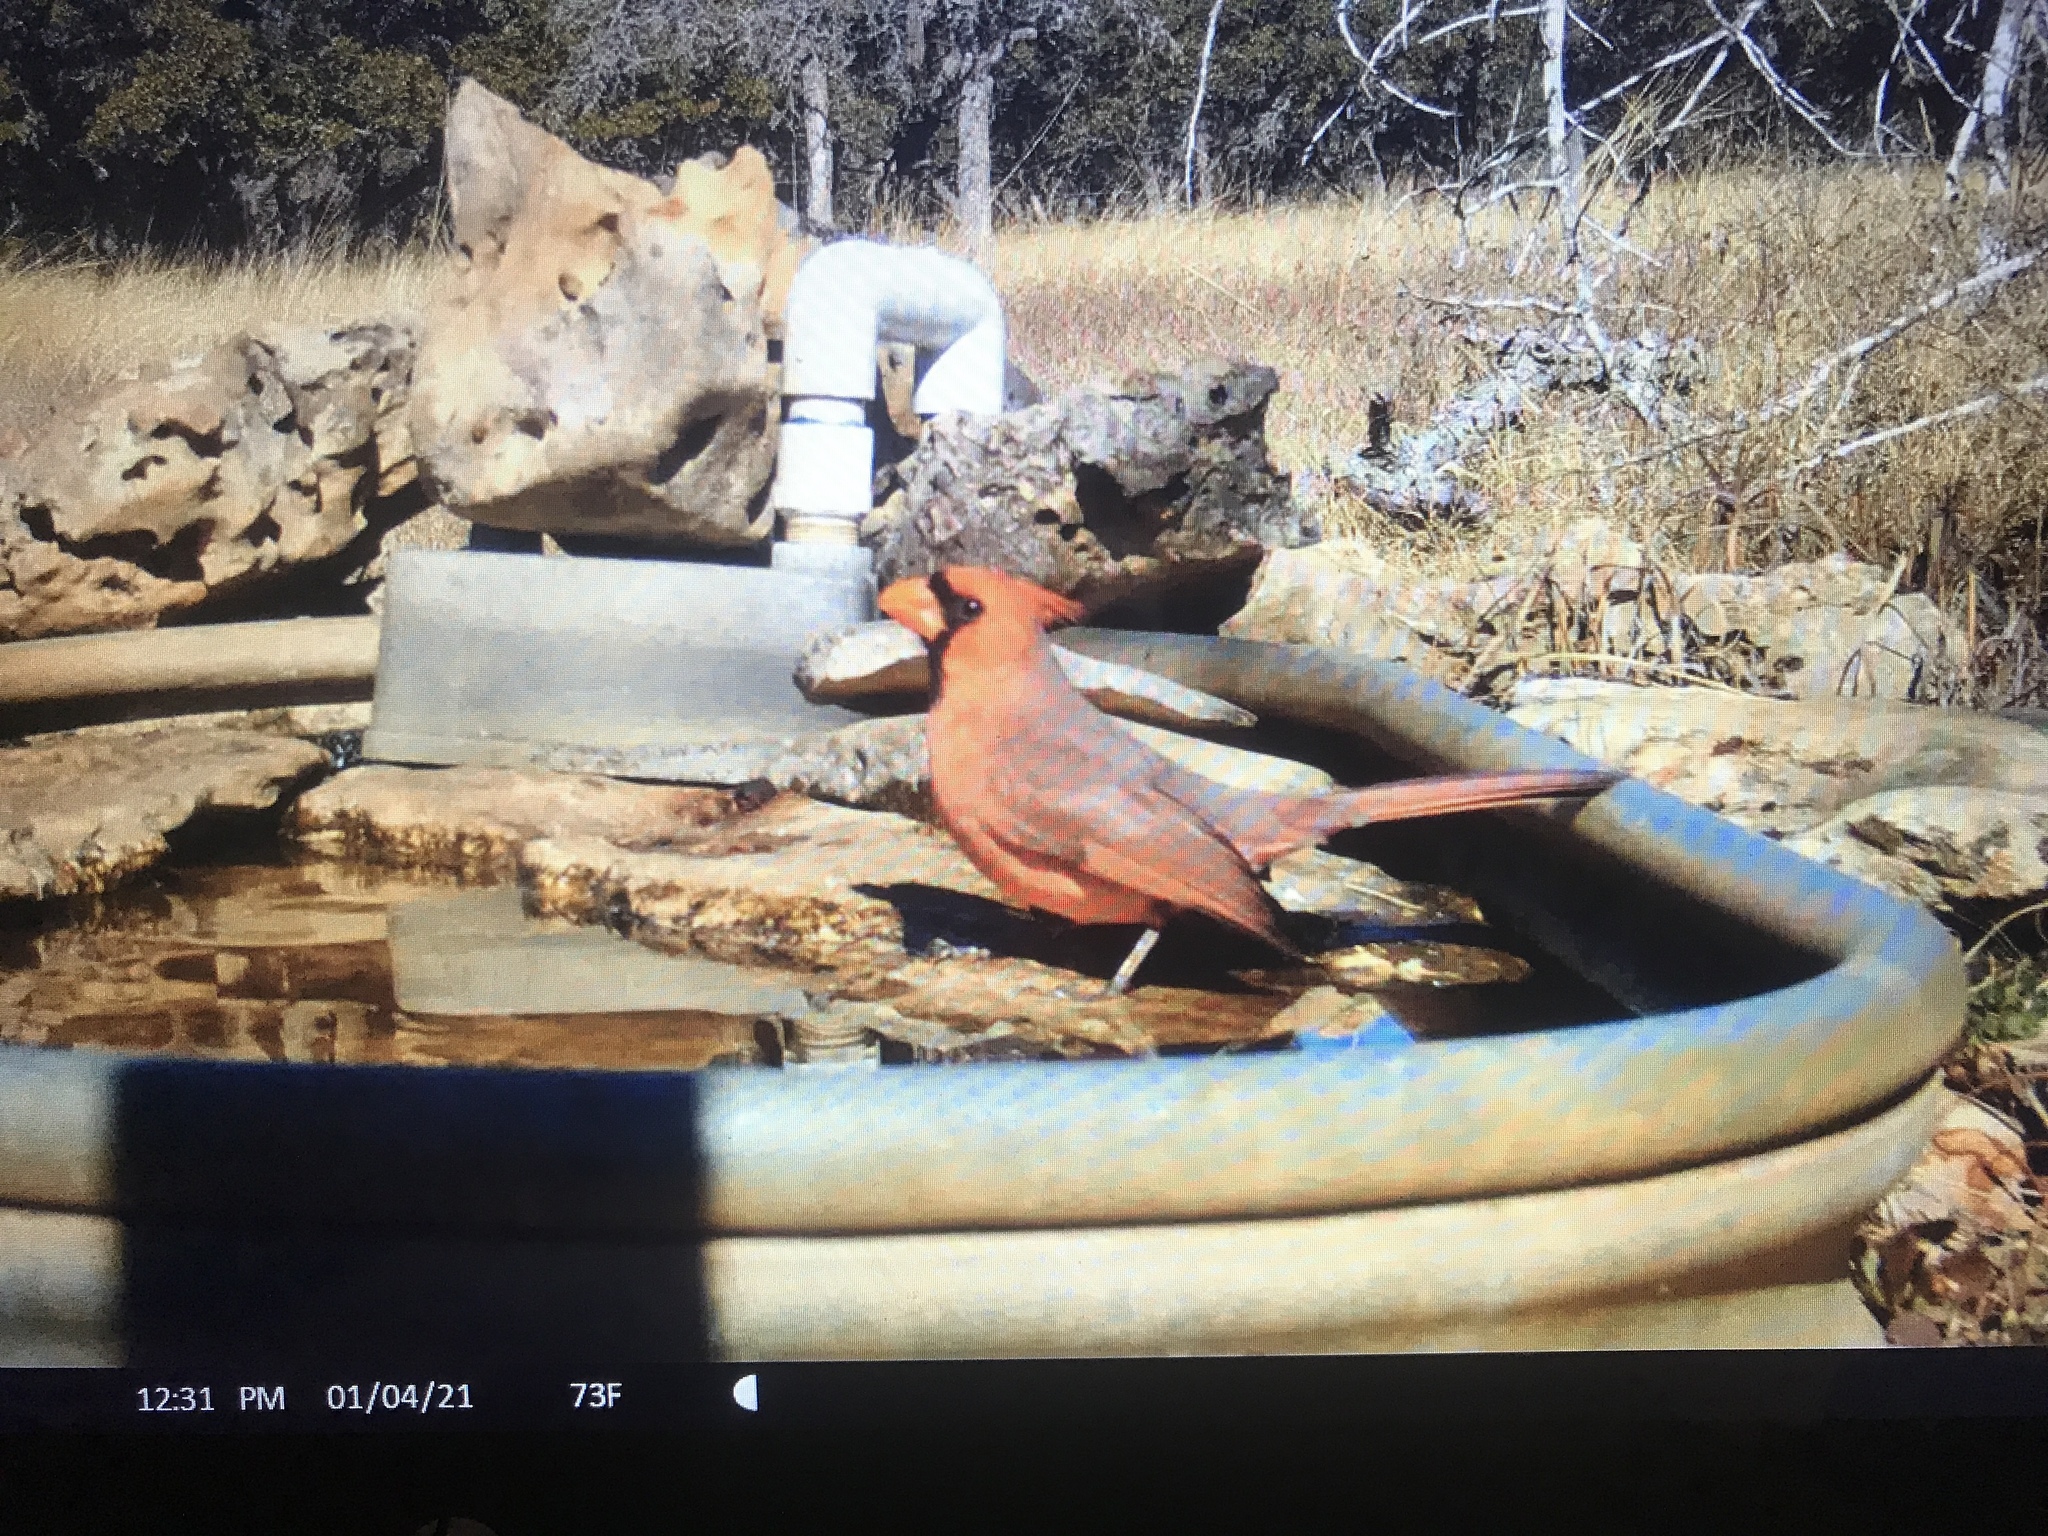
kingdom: Animalia
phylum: Chordata
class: Aves
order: Passeriformes
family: Cardinalidae
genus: Cardinalis
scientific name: Cardinalis cardinalis
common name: Northern cardinal
